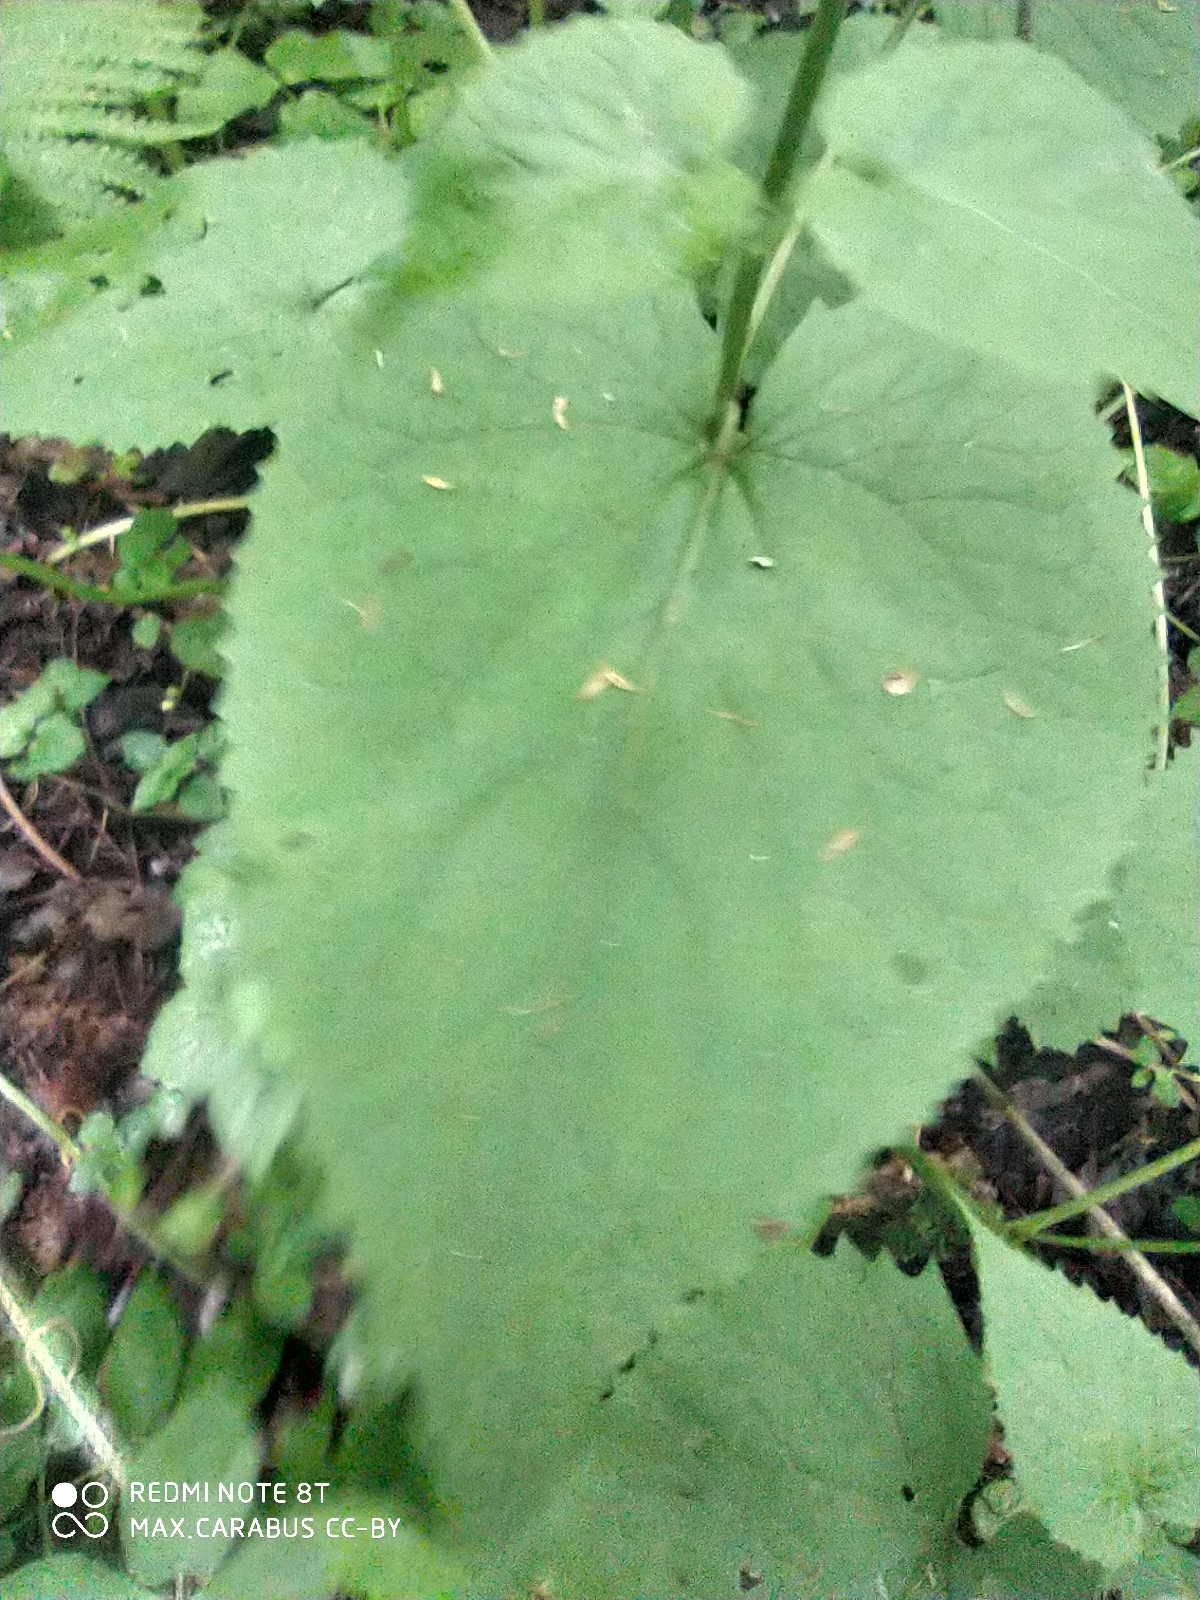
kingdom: Plantae
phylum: Tracheophyta
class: Magnoliopsida
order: Brassicales
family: Brassicaceae
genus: Lunaria
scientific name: Lunaria rediviva
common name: Perennial honesty
